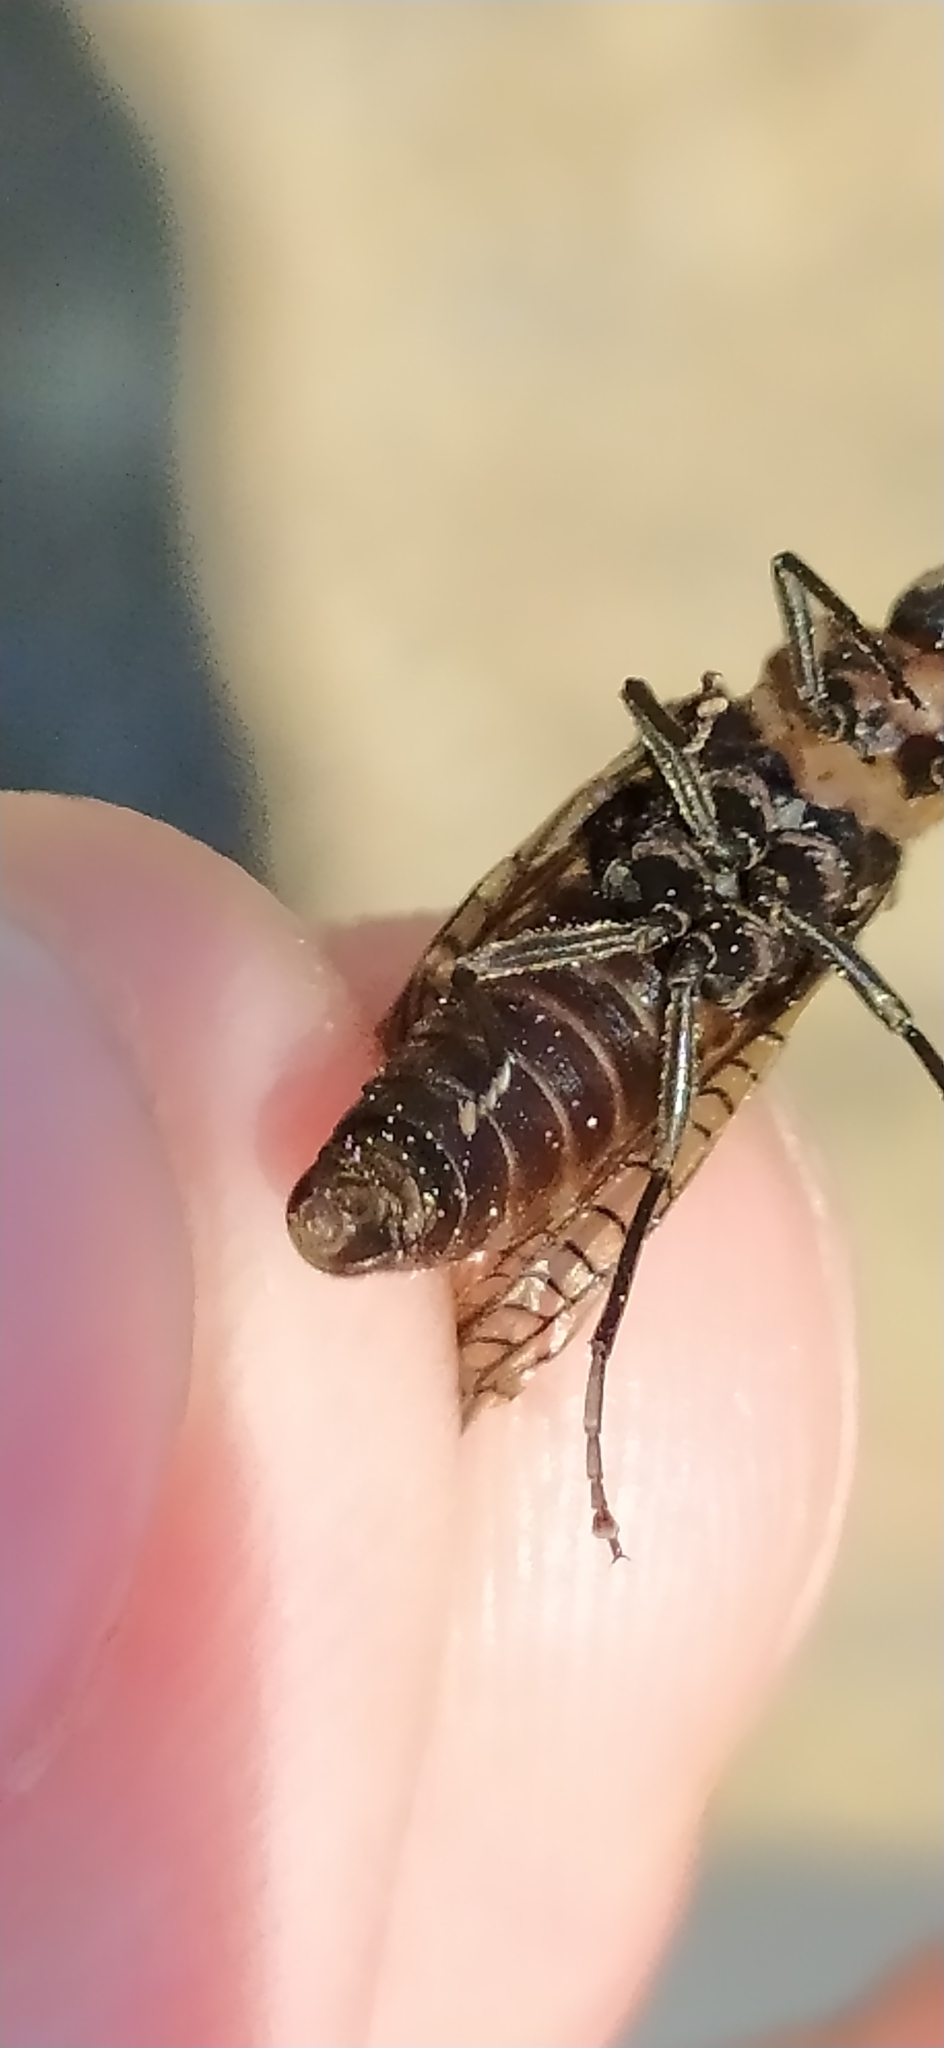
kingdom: Animalia
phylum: Arthropoda
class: Insecta
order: Megaloptera
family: Sialidae
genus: Sialis
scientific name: Sialis morio
